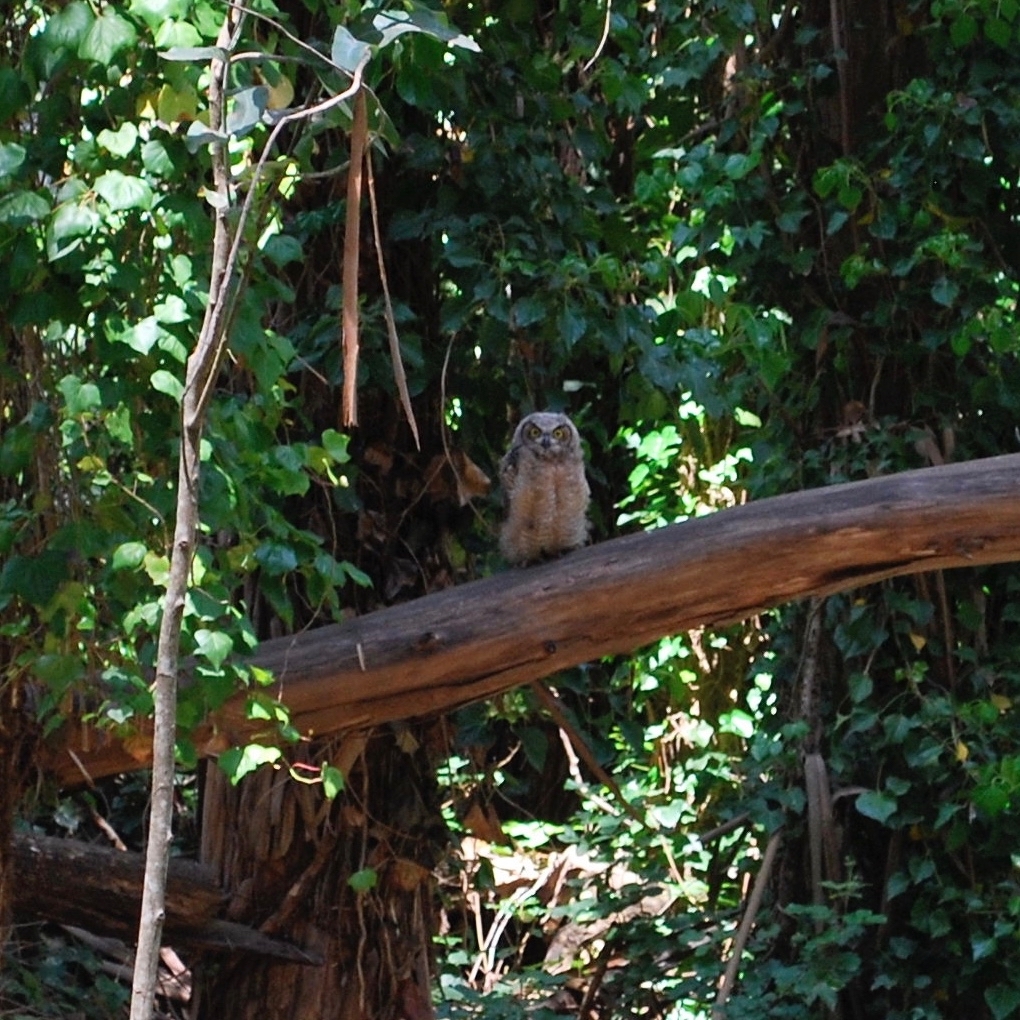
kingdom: Animalia
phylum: Chordata
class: Aves
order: Strigiformes
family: Strigidae
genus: Bubo
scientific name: Bubo virginianus
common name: Great horned owl
